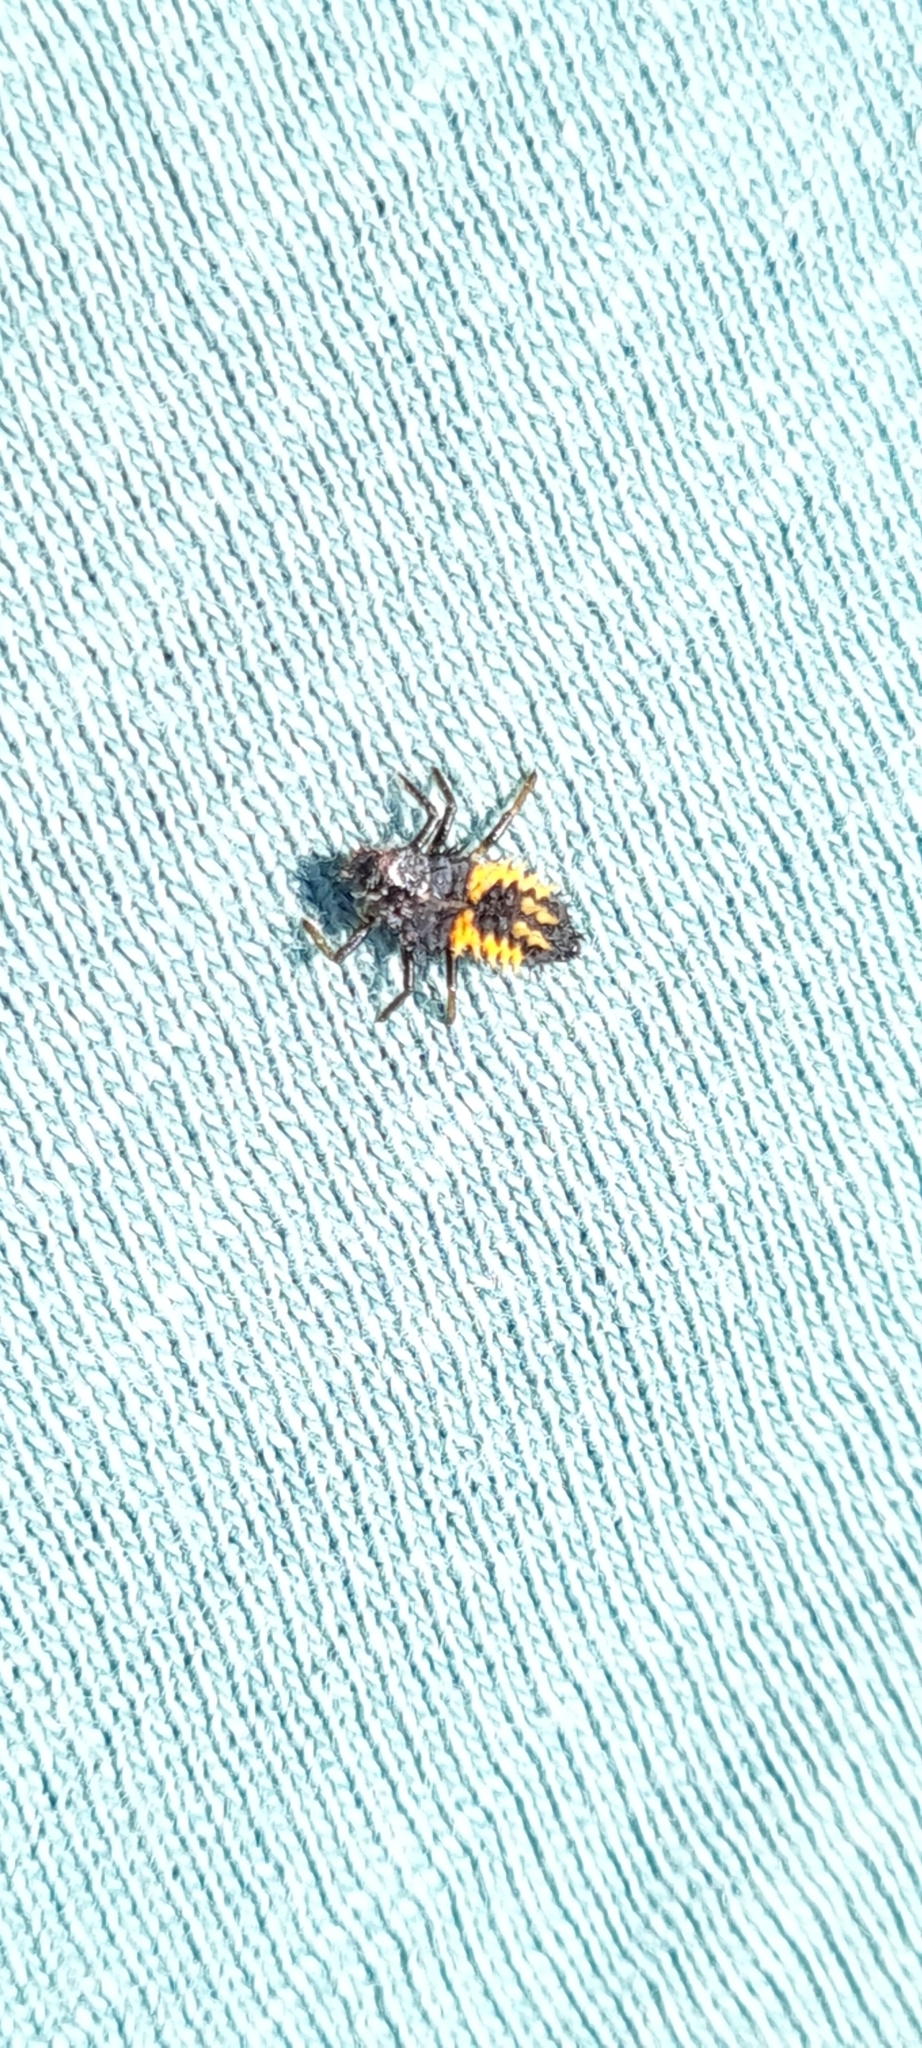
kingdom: Animalia
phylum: Arthropoda
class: Insecta
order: Coleoptera
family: Coccinellidae
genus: Harmonia
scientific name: Harmonia axyridis
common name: Harlequin ladybird
